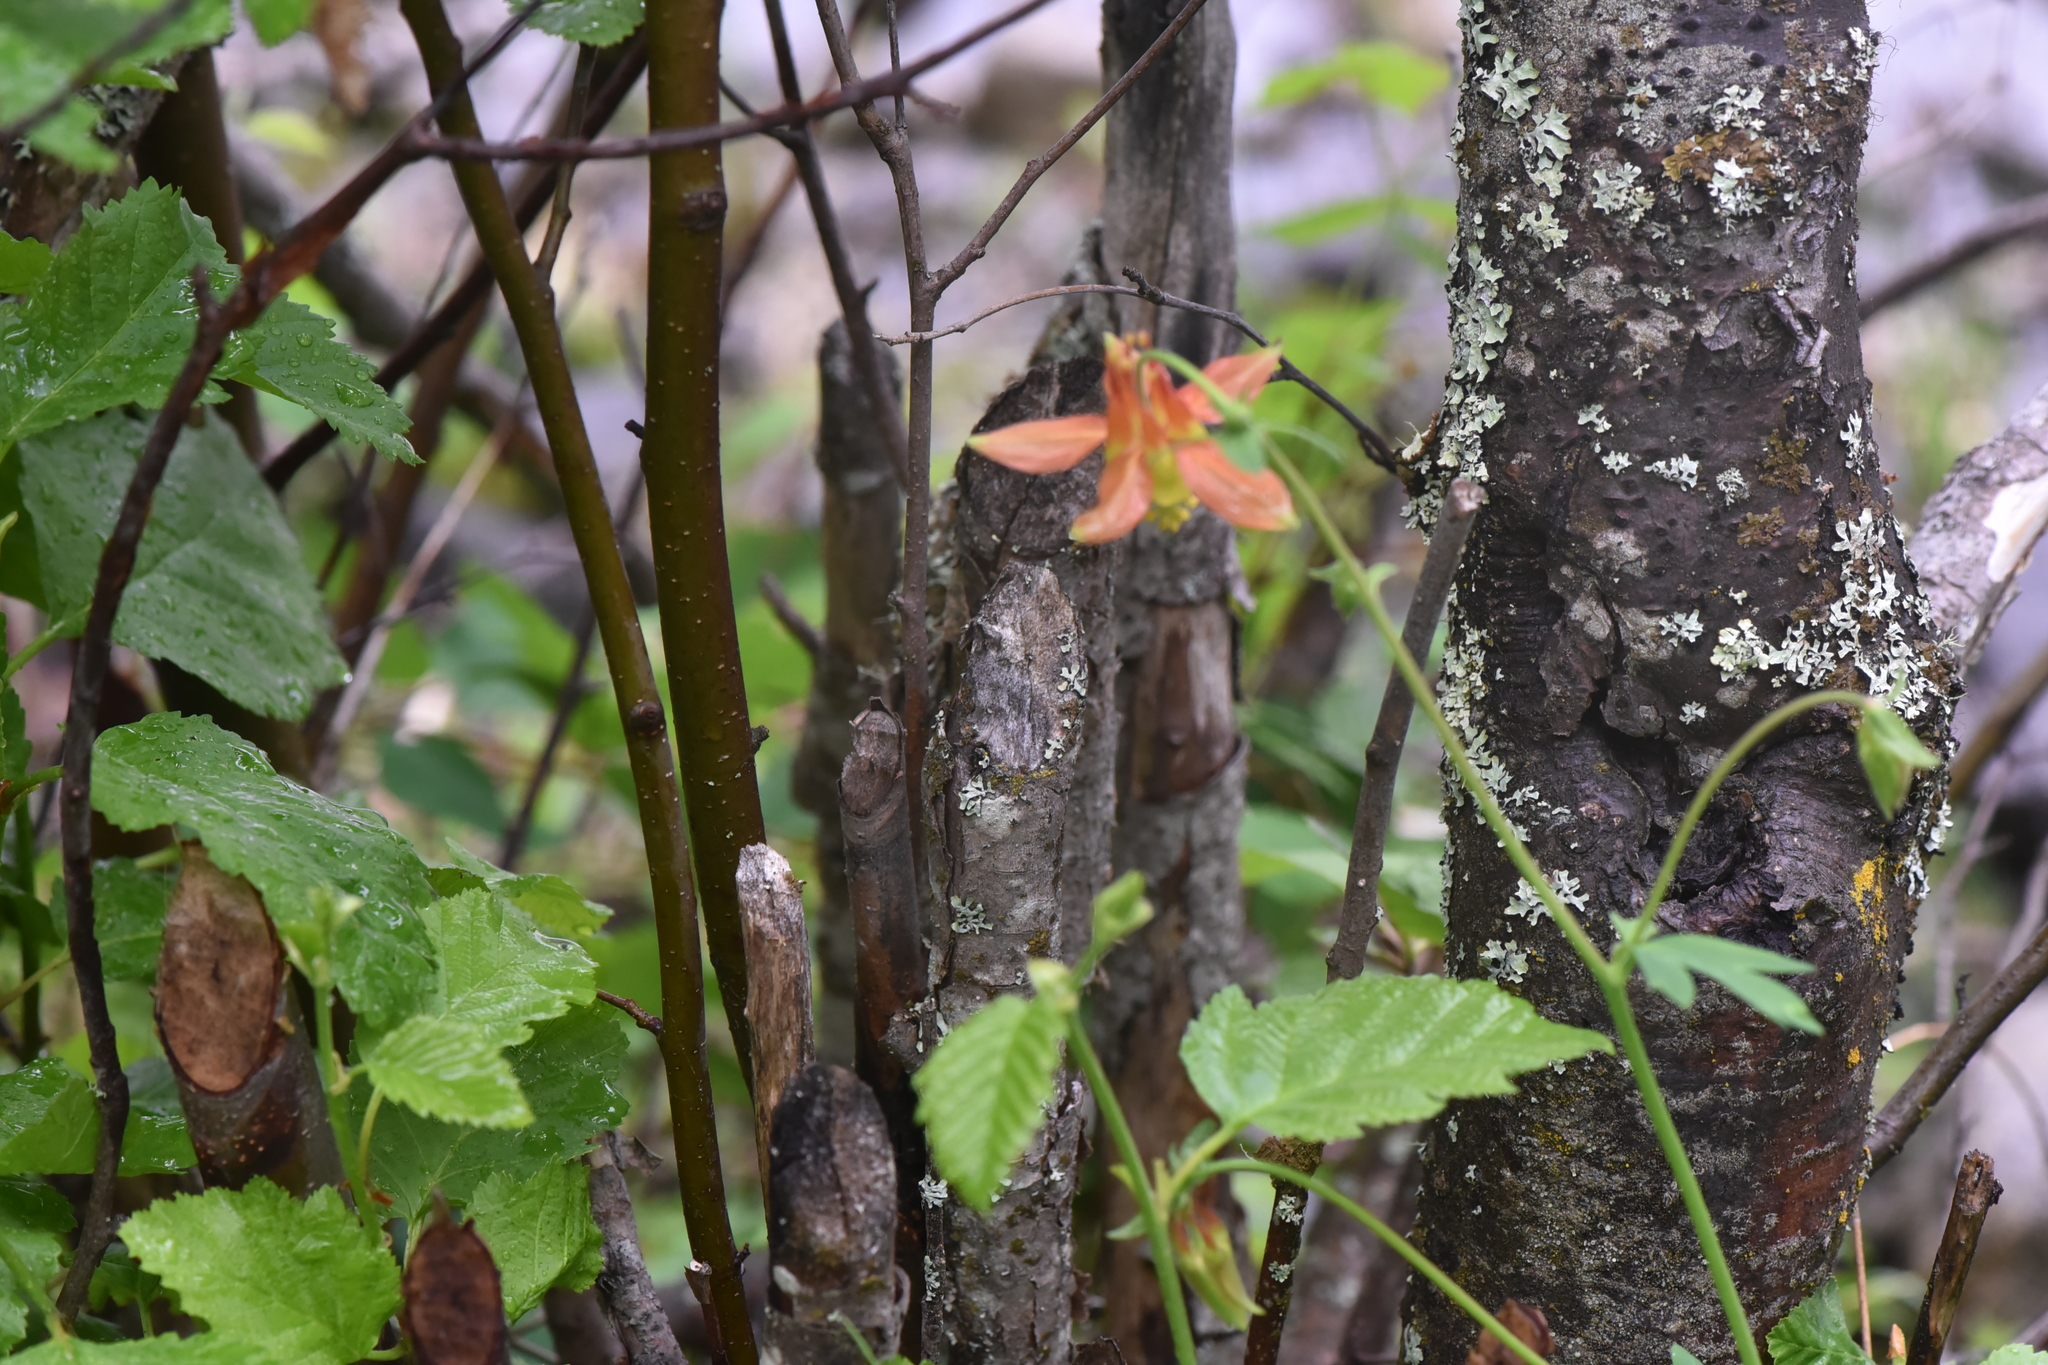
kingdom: Plantae
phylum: Tracheophyta
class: Magnoliopsida
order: Ranunculales
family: Ranunculaceae
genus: Aquilegia
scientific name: Aquilegia formosa
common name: Sitka columbine
